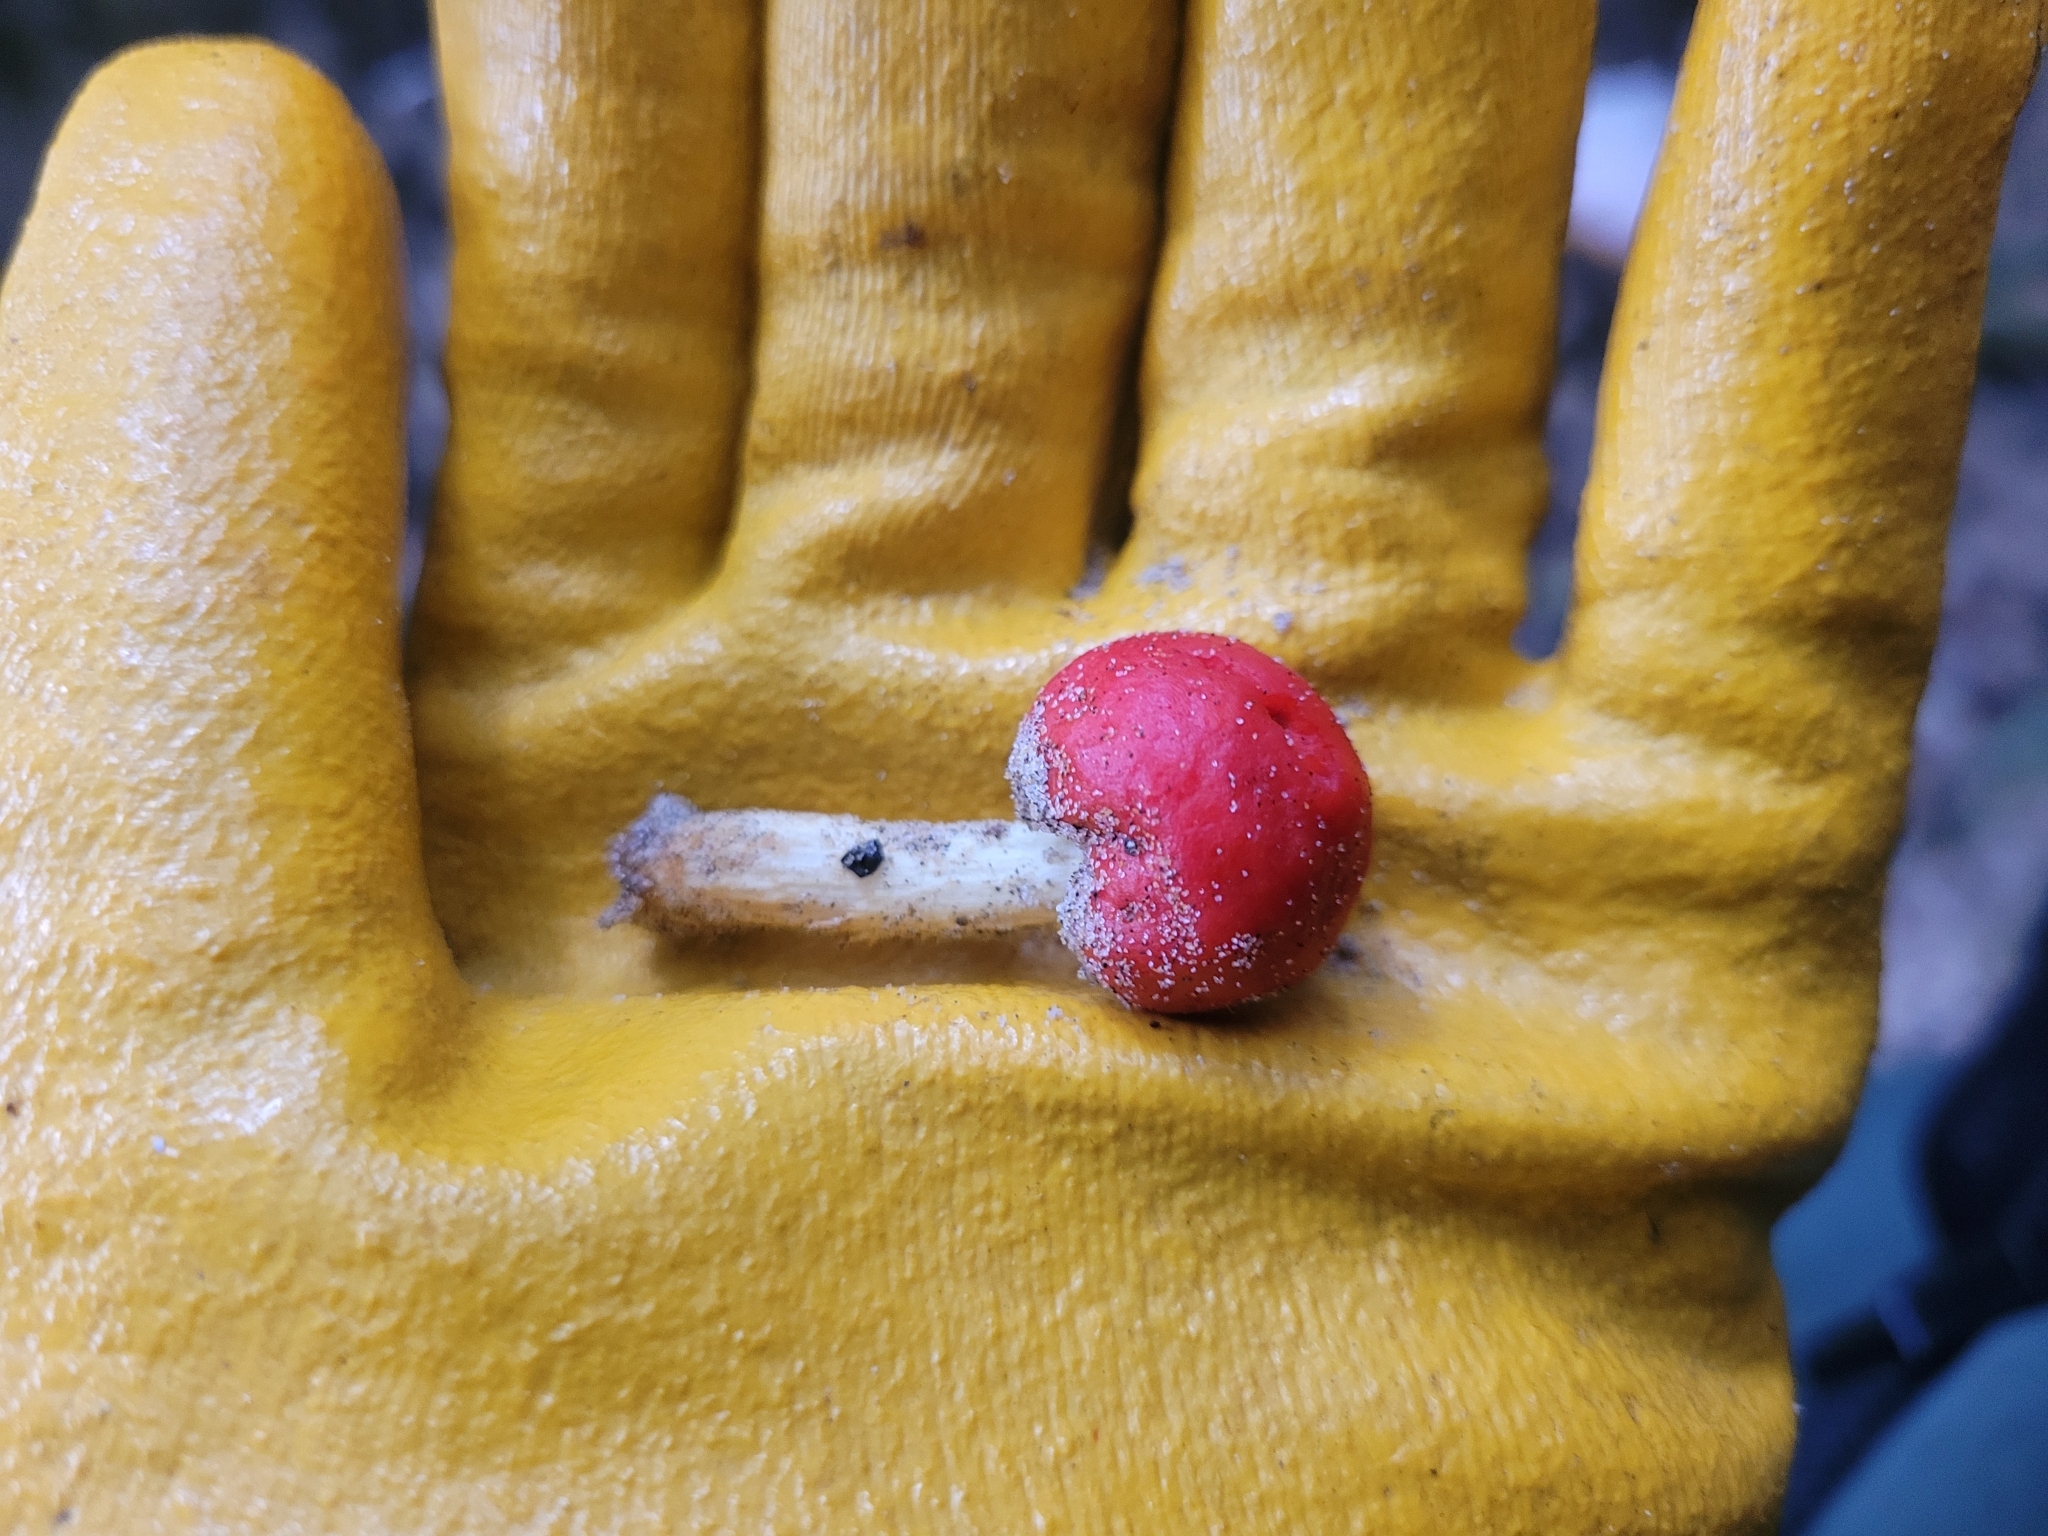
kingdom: Fungi
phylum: Basidiomycota
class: Agaricomycetes
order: Agaricales
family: Strophariaceae
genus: Leratiomyces
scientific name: Leratiomyces erythrocephalus
